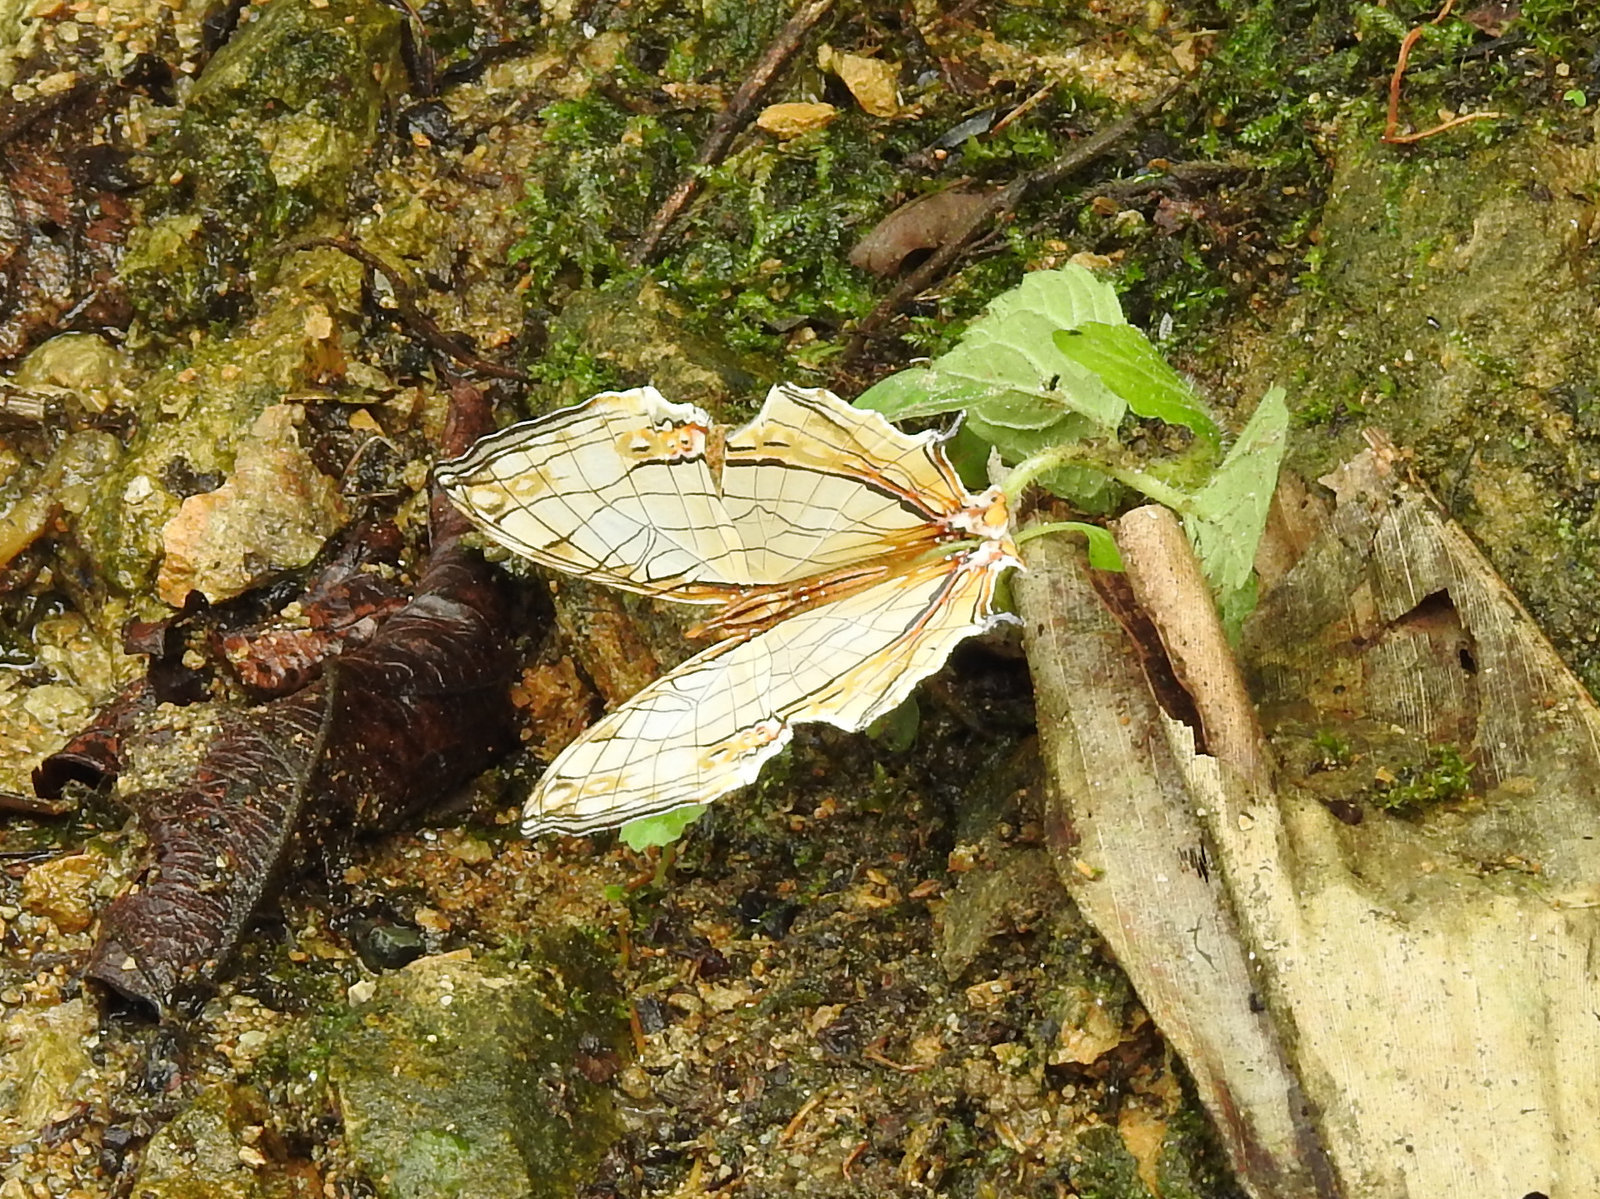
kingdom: Animalia
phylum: Arthropoda
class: Insecta
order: Lepidoptera
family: Nymphalidae
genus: Cyrestis
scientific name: Cyrestis thyodamas
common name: Common mapwing
